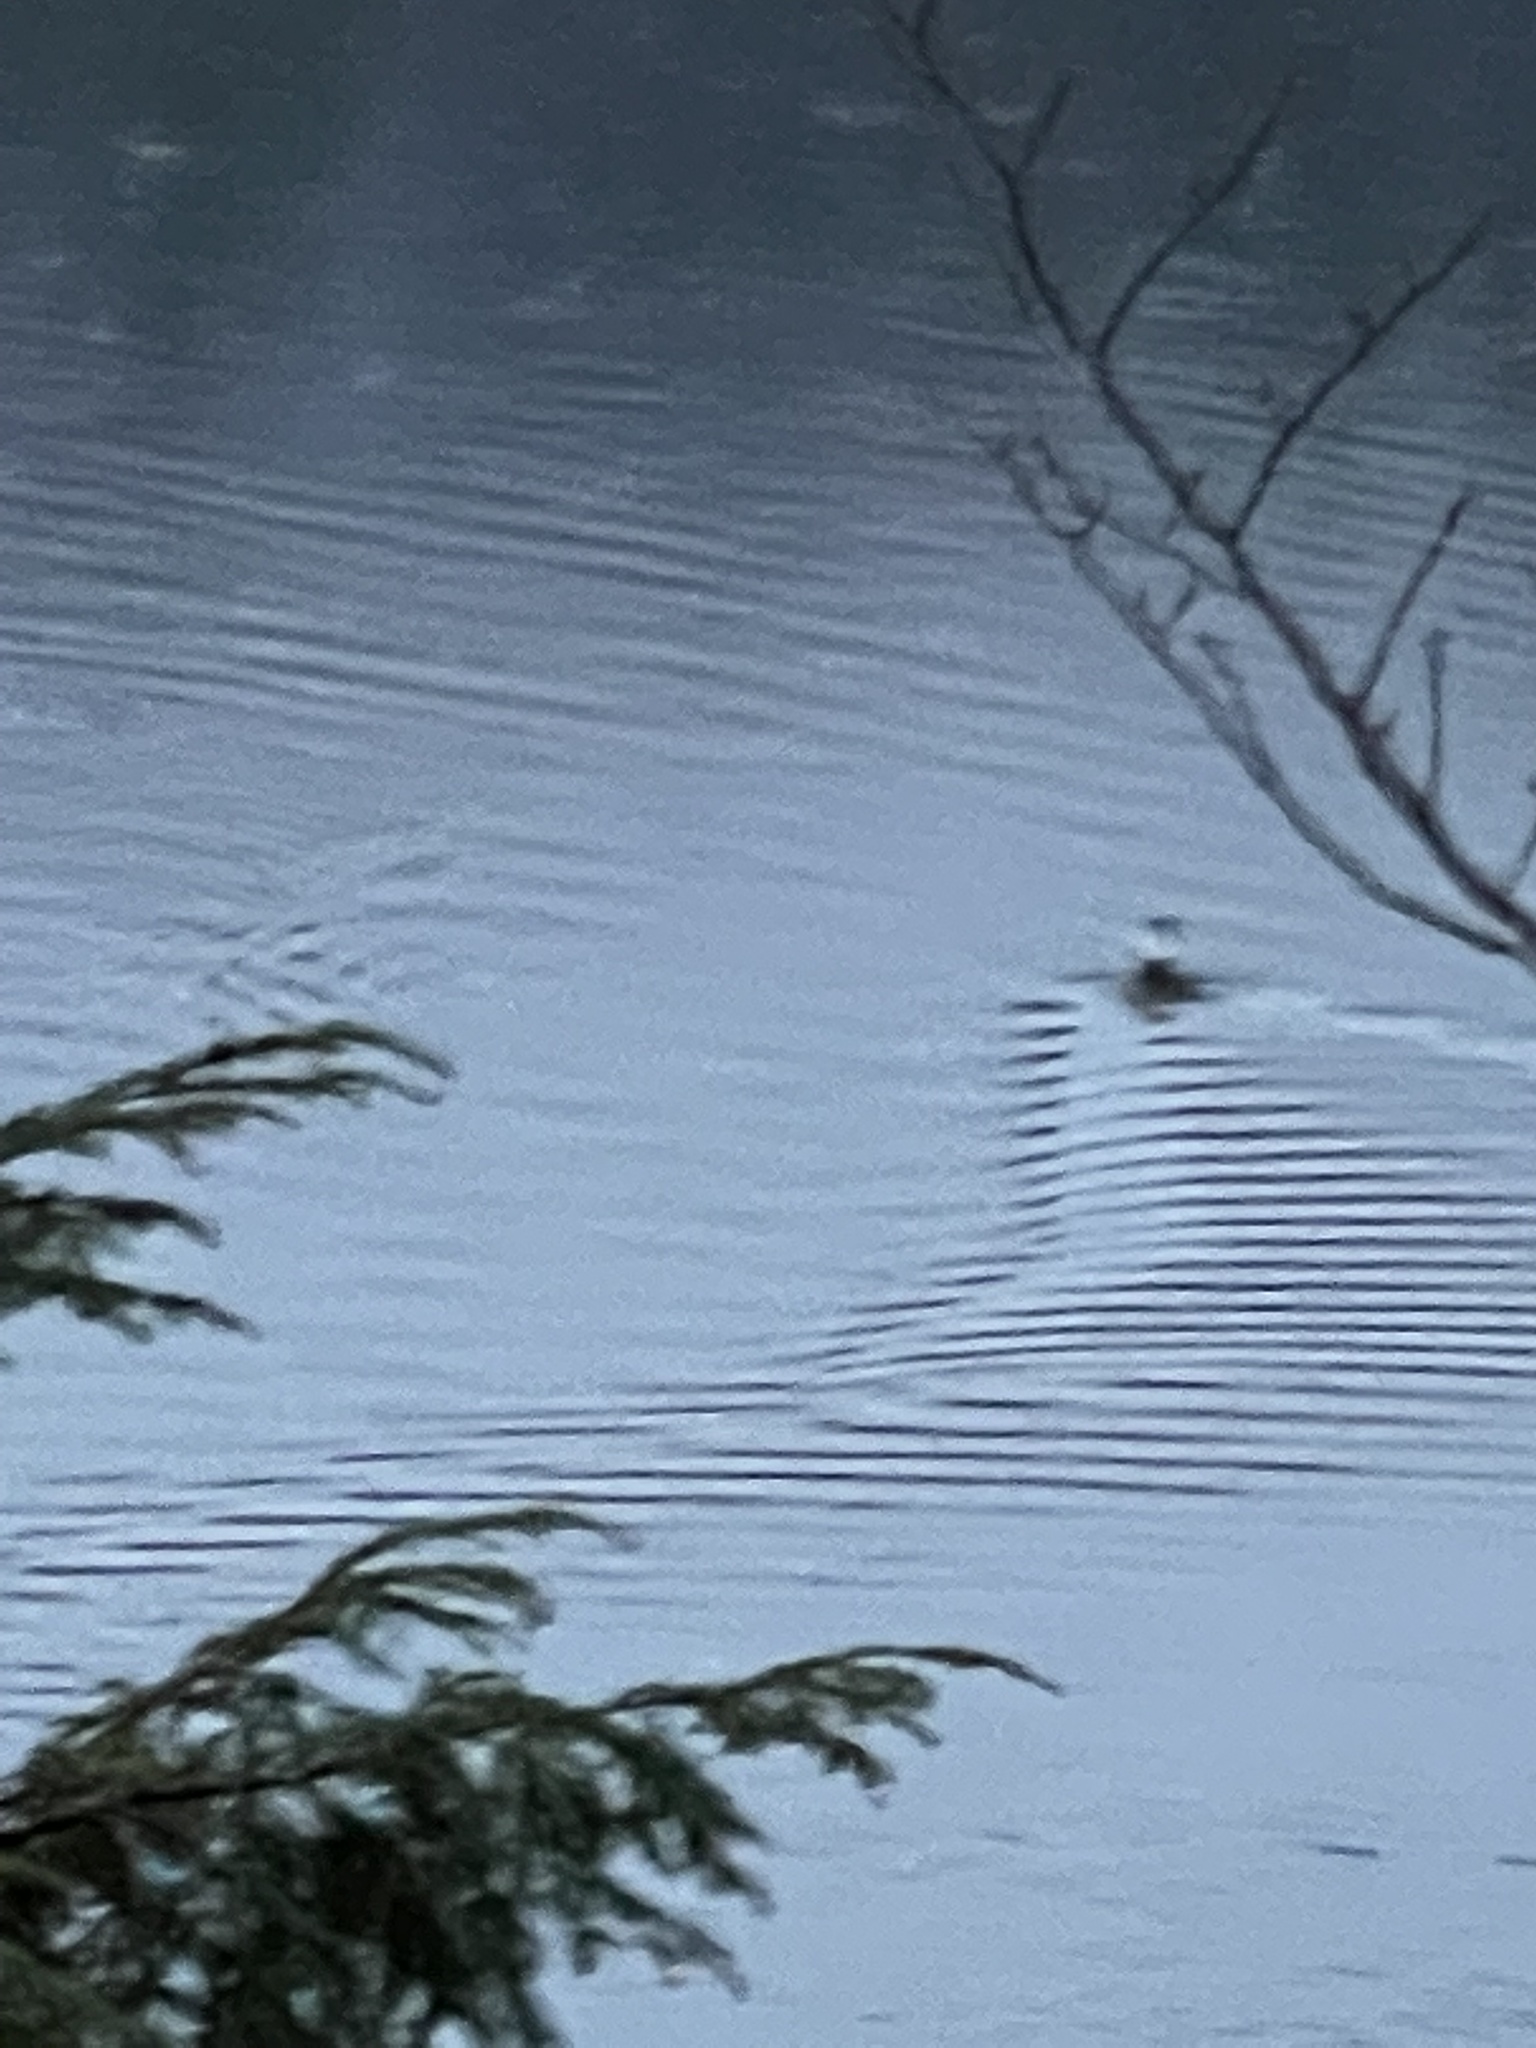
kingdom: Animalia
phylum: Chordata
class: Aves
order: Anseriformes
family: Anatidae
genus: Lophodytes
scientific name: Lophodytes cucullatus
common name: Hooded merganser
